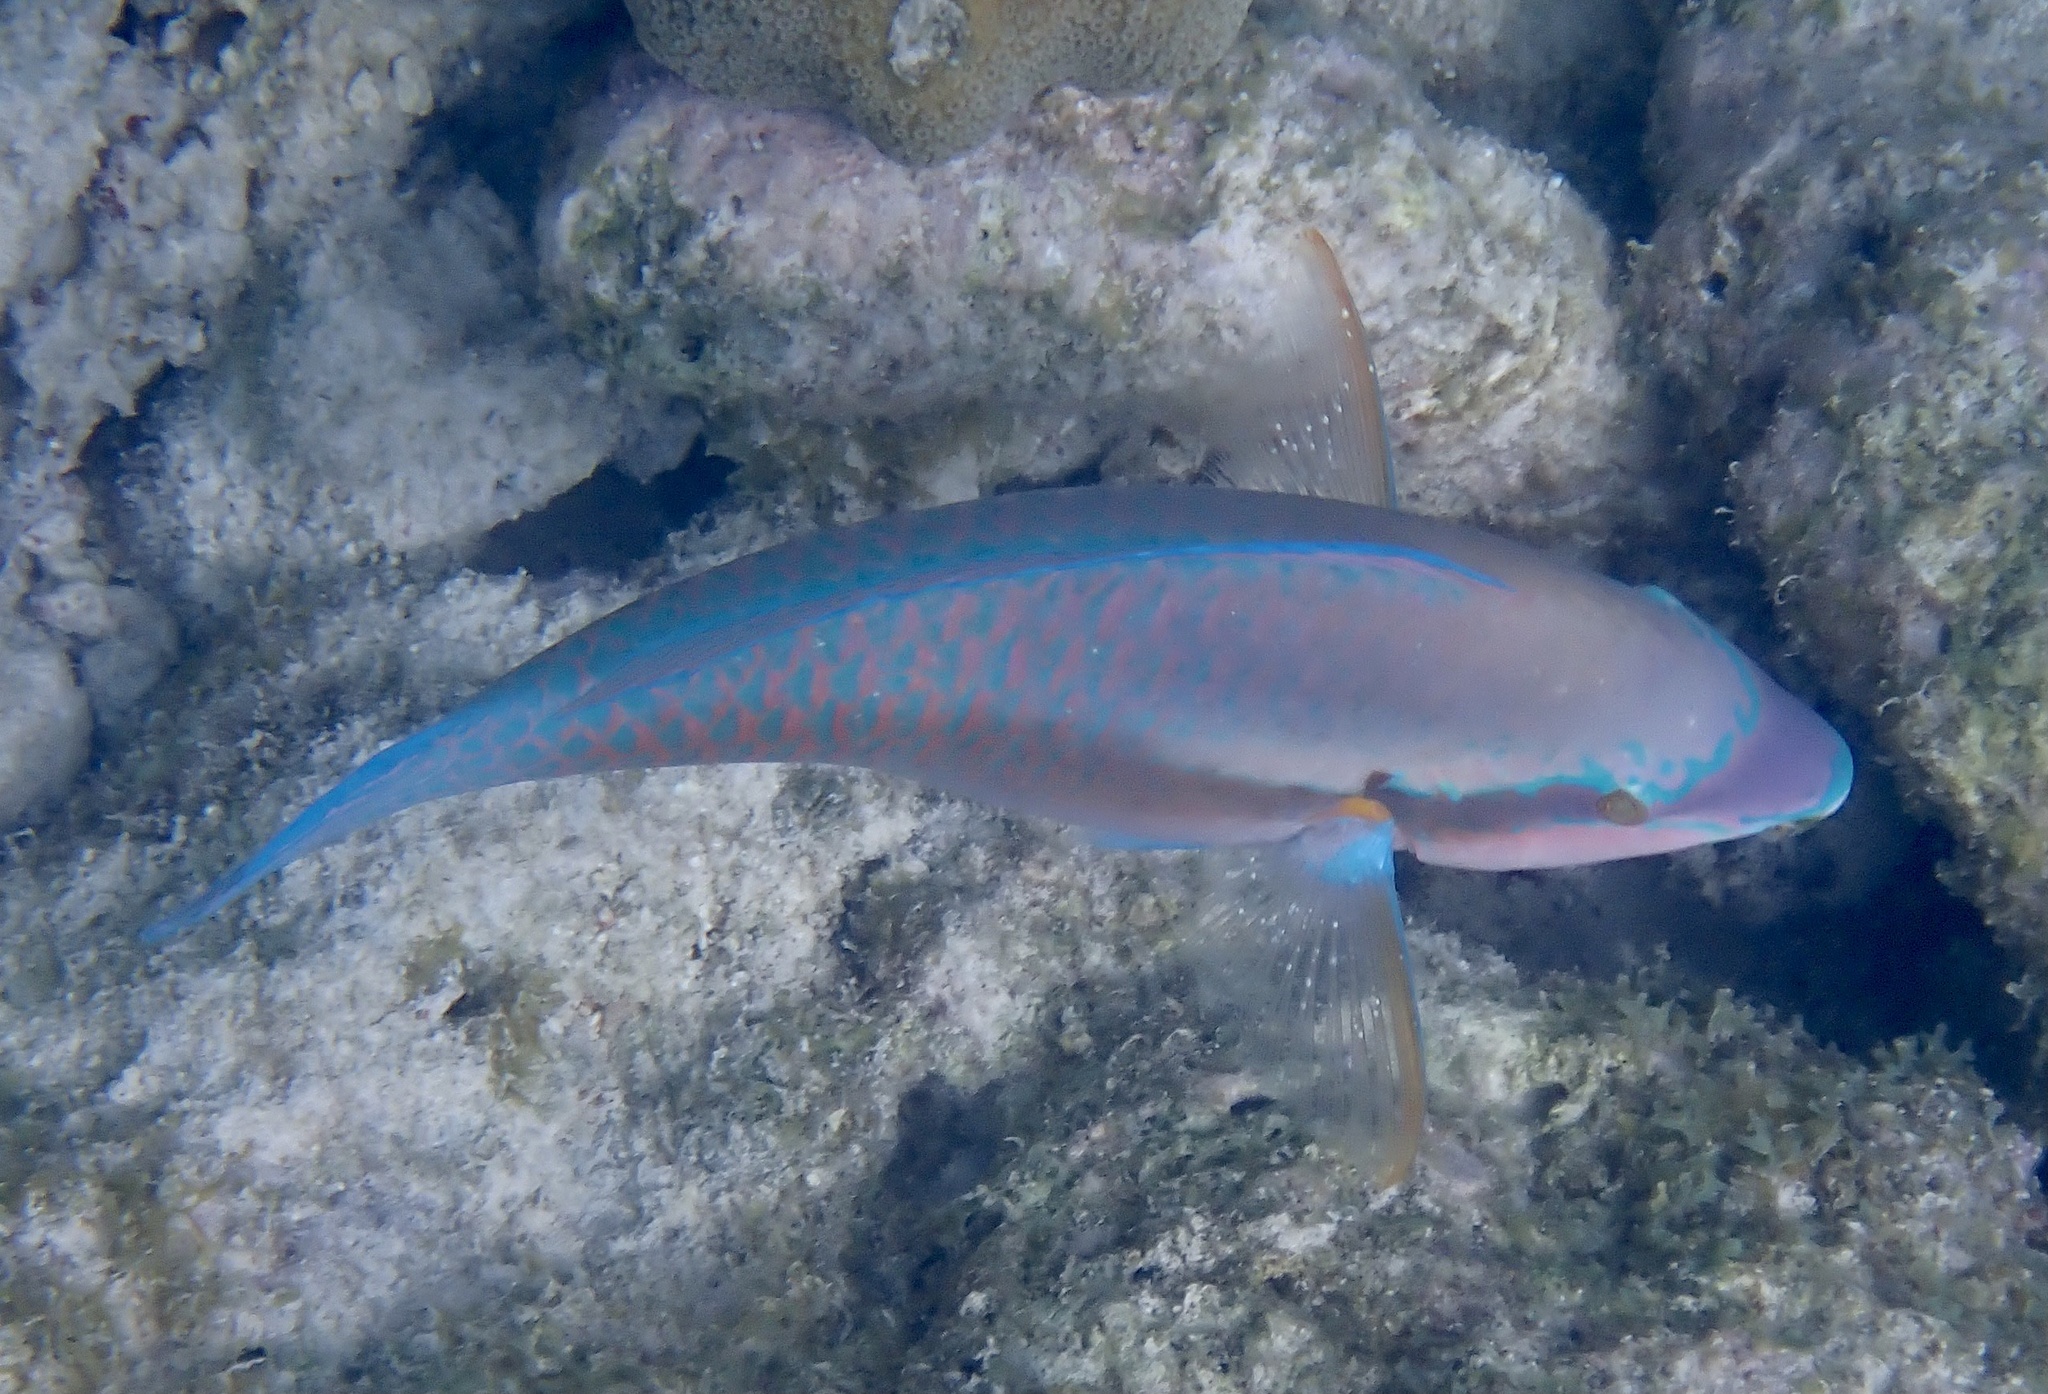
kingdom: Animalia
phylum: Chordata
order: Perciformes
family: Scaridae
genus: Scarus
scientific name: Scarus iseri
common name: Striped parrotfish
